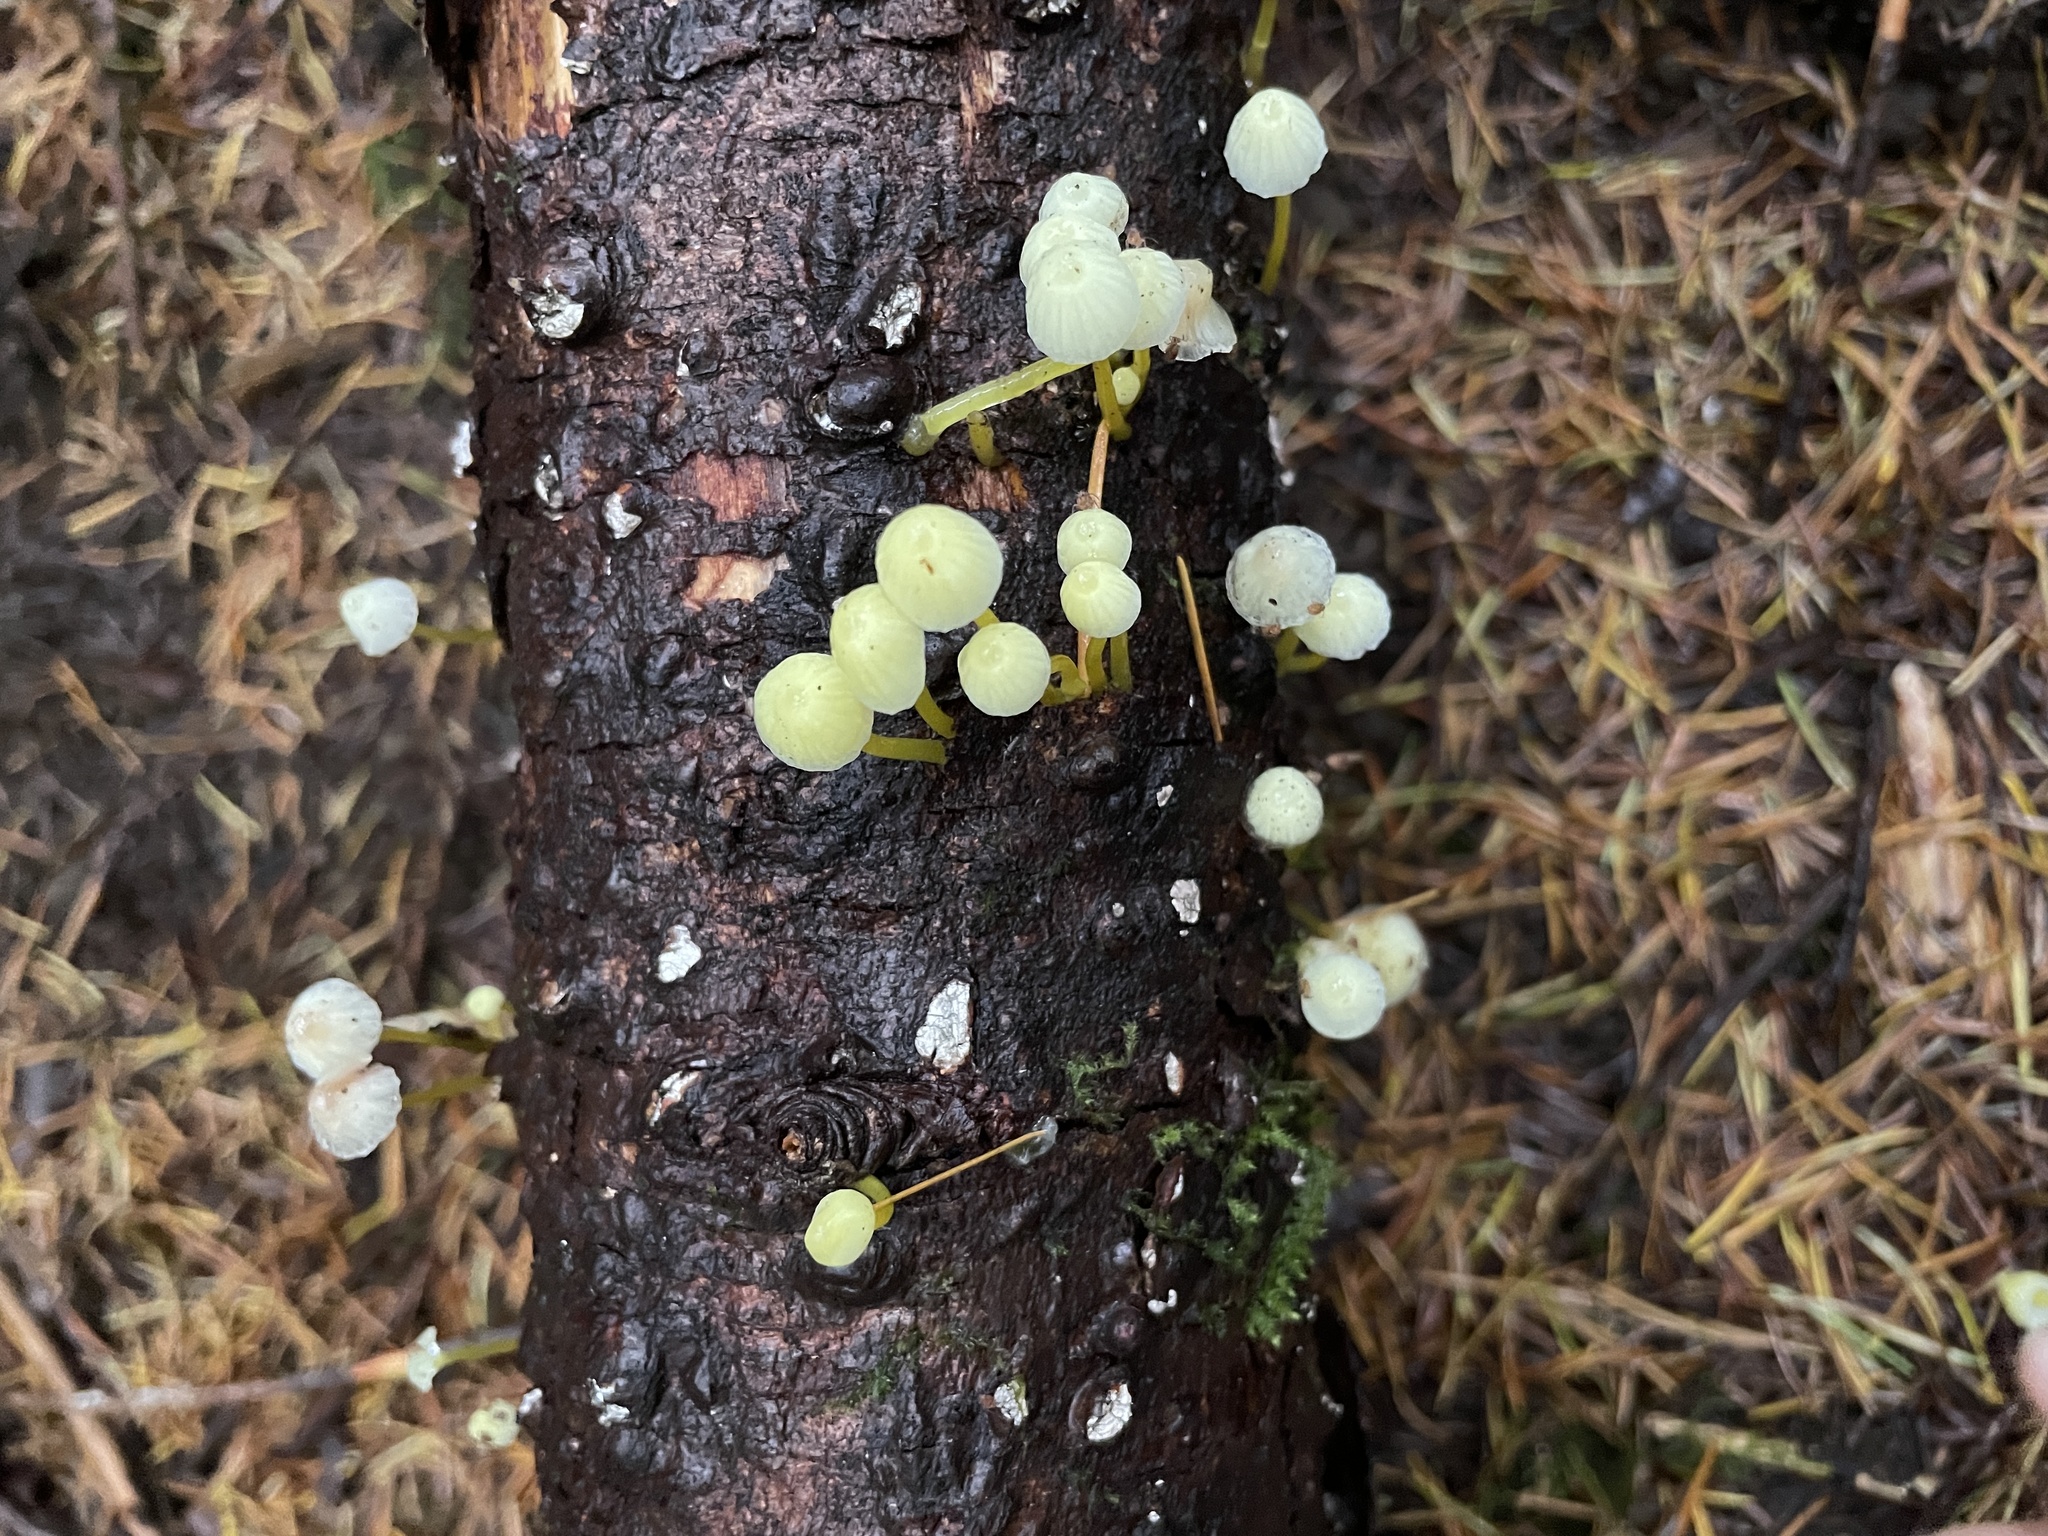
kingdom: Fungi
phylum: Basidiomycota
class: Agaricomycetes
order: Agaricales
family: Mycenaceae
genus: Mycena
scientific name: Mycena epipterygia
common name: Yellowleg bonnet
